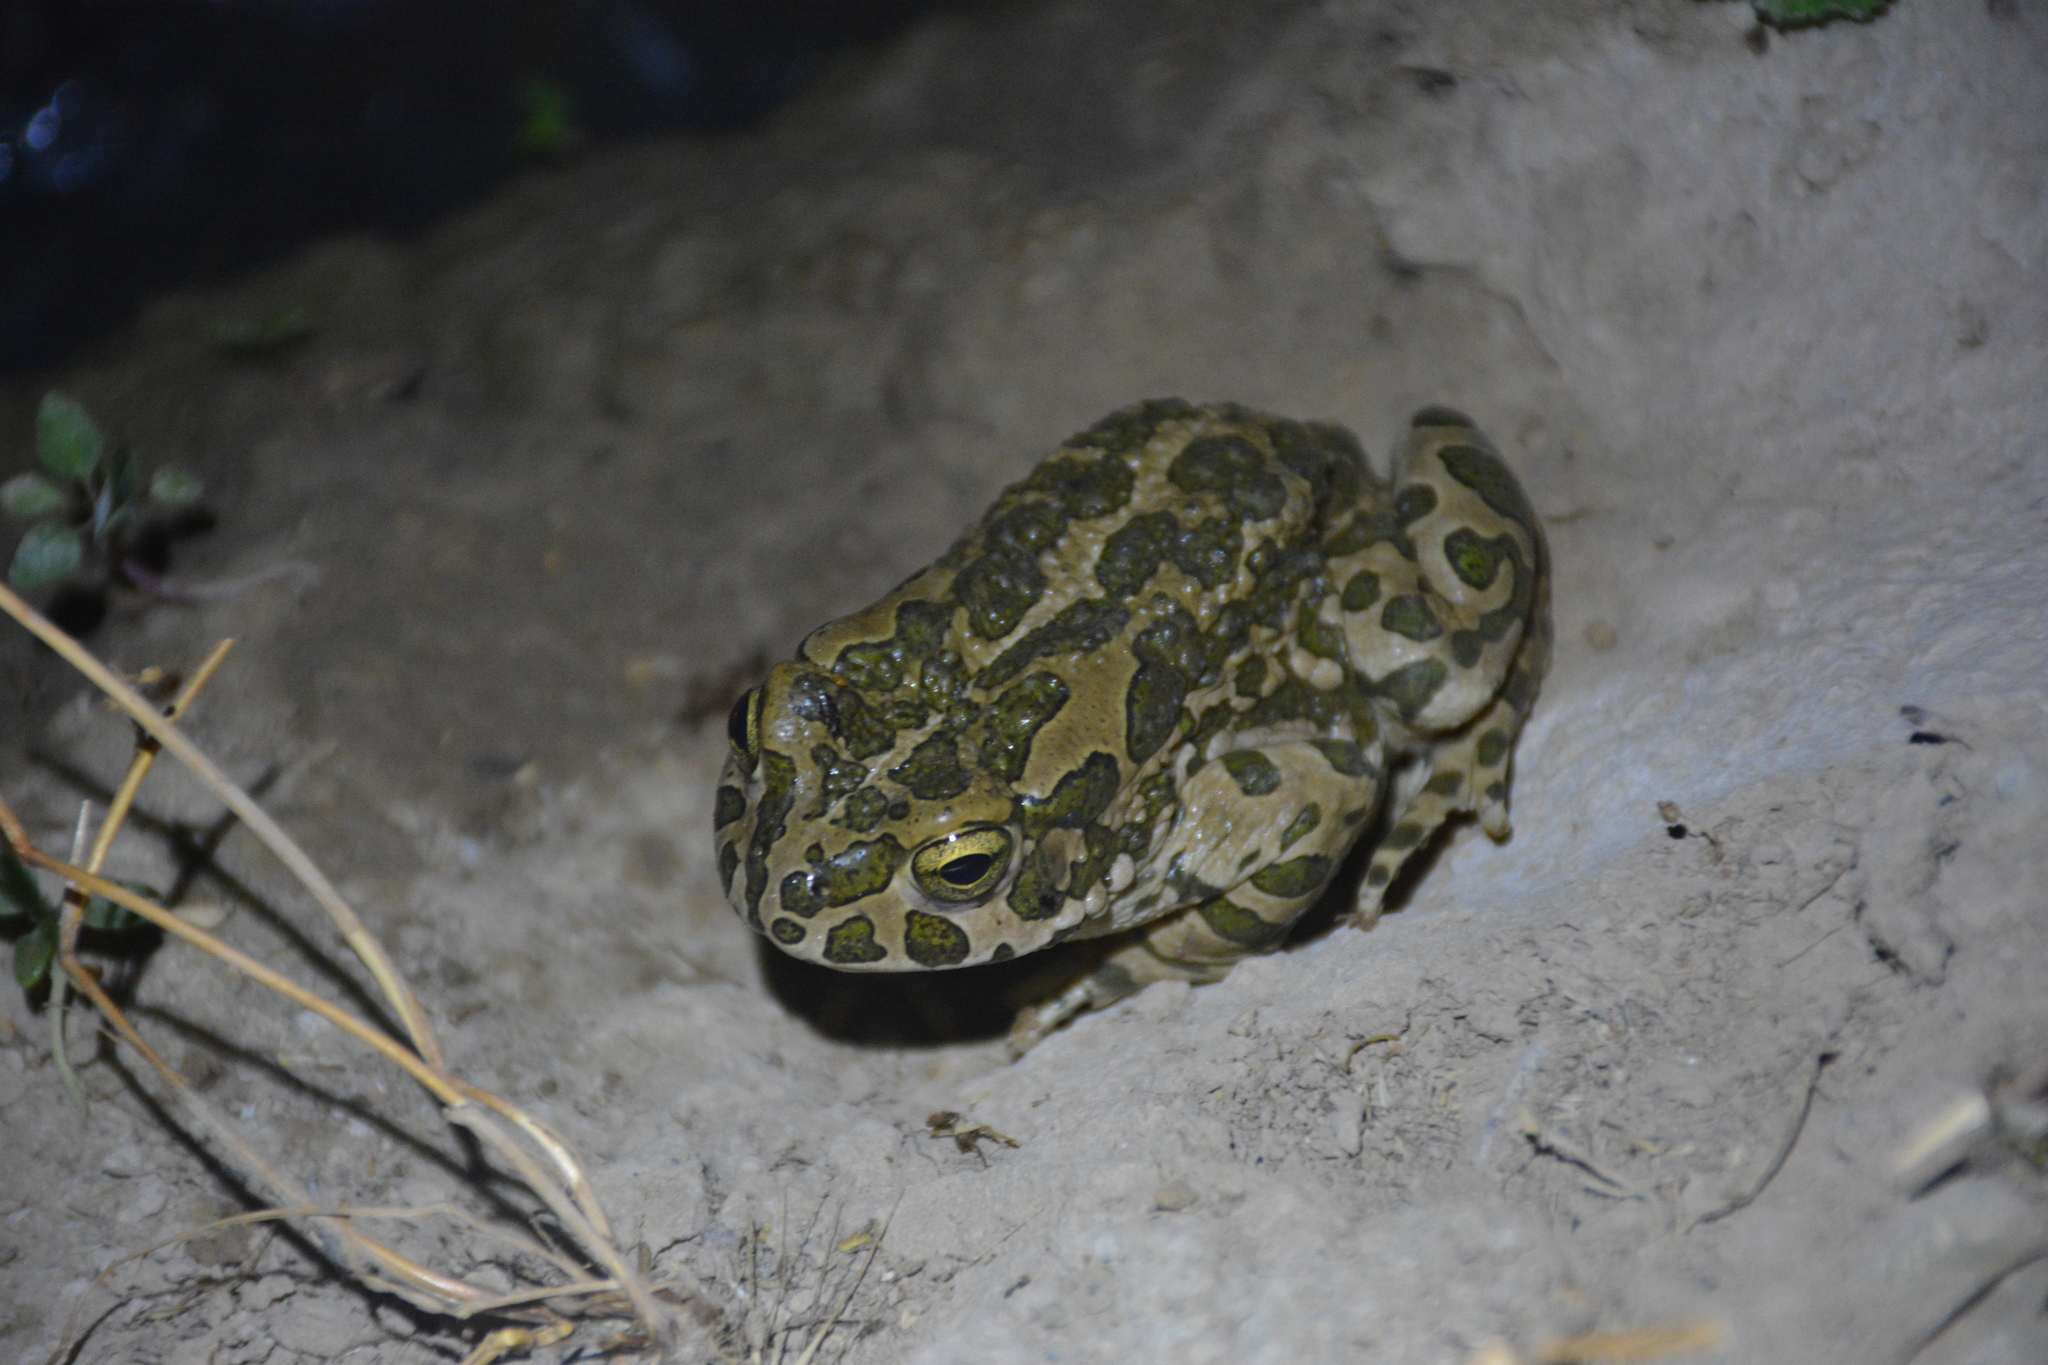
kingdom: Animalia
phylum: Chordata
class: Amphibia
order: Anura
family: Bufonidae
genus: Bufotes
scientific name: Bufotes viridis
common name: European green toad
